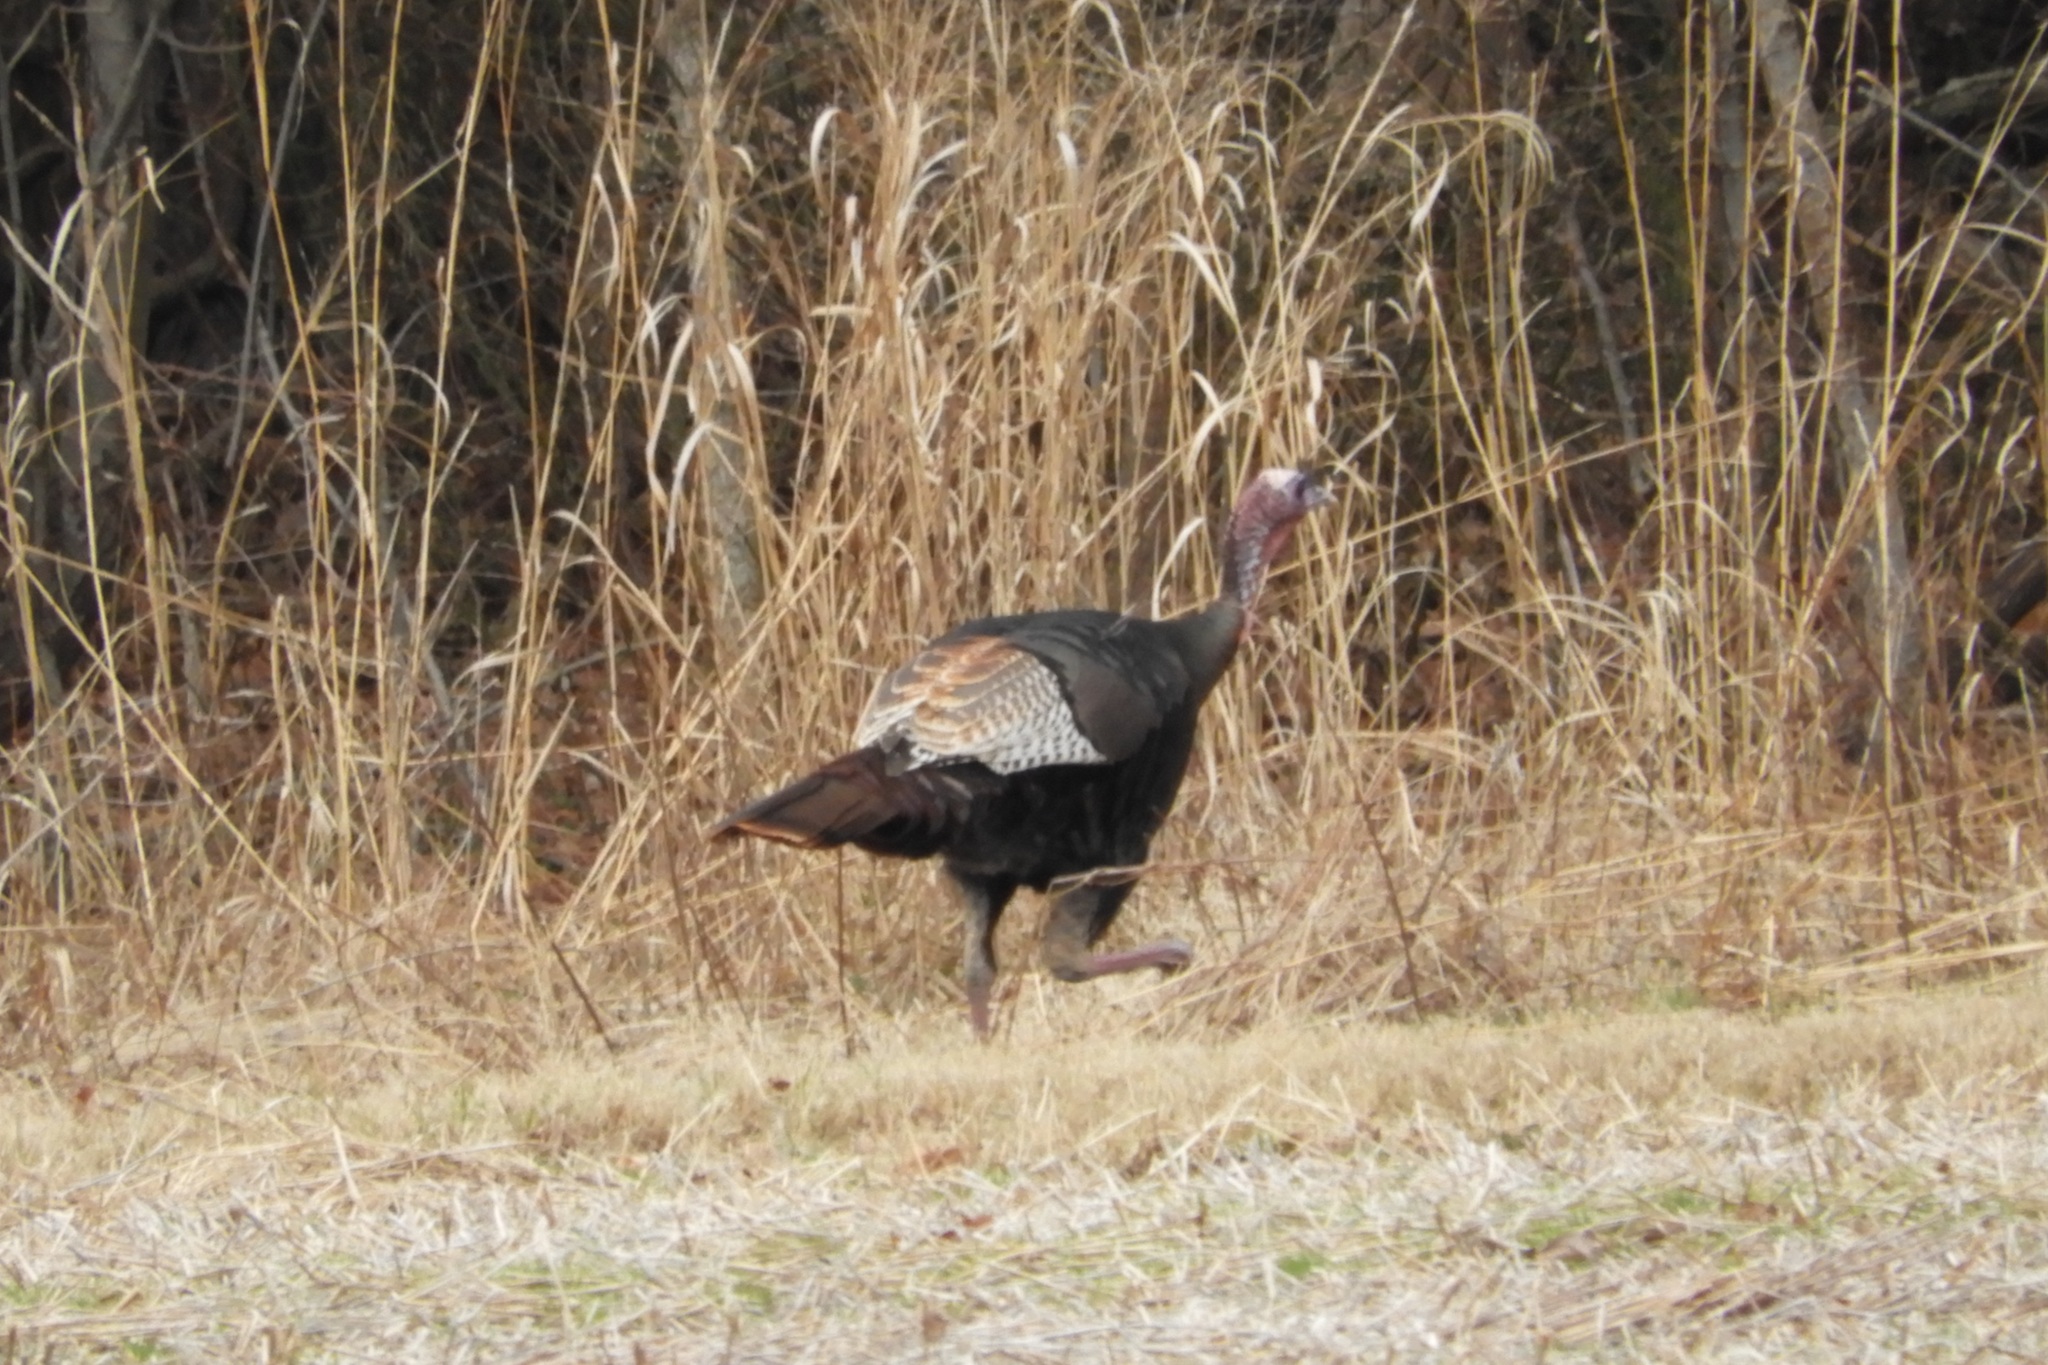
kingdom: Animalia
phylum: Chordata
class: Aves
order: Galliformes
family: Phasianidae
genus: Meleagris
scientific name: Meleagris gallopavo
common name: Wild turkey
